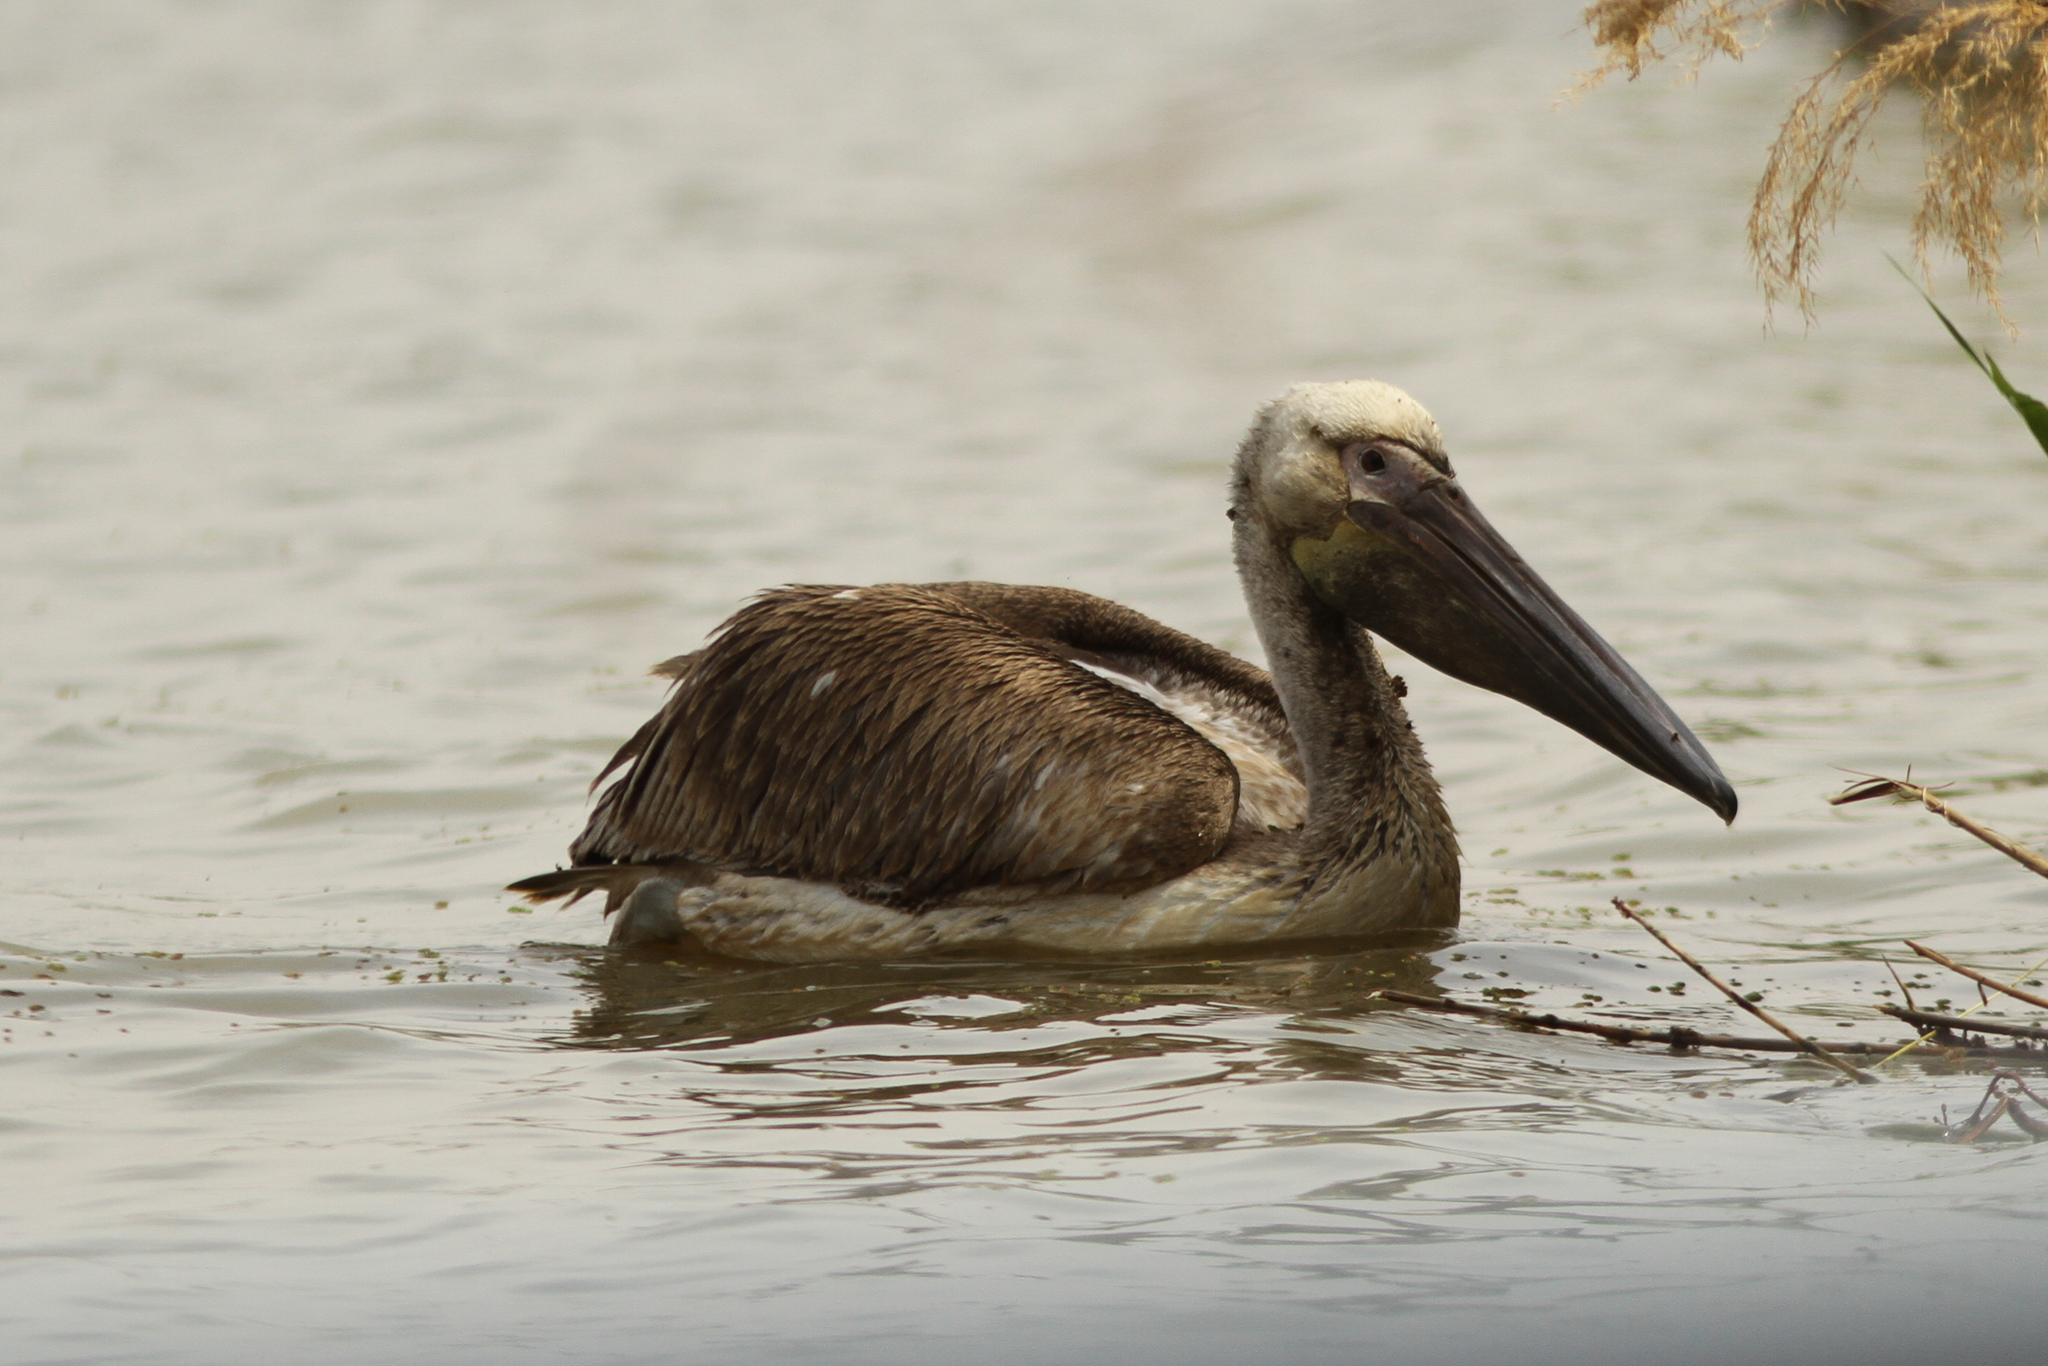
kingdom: Animalia
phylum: Chordata
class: Aves
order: Pelecaniformes
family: Pelecanidae
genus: Pelecanus
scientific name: Pelecanus onocrotalus
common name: Great white pelican
